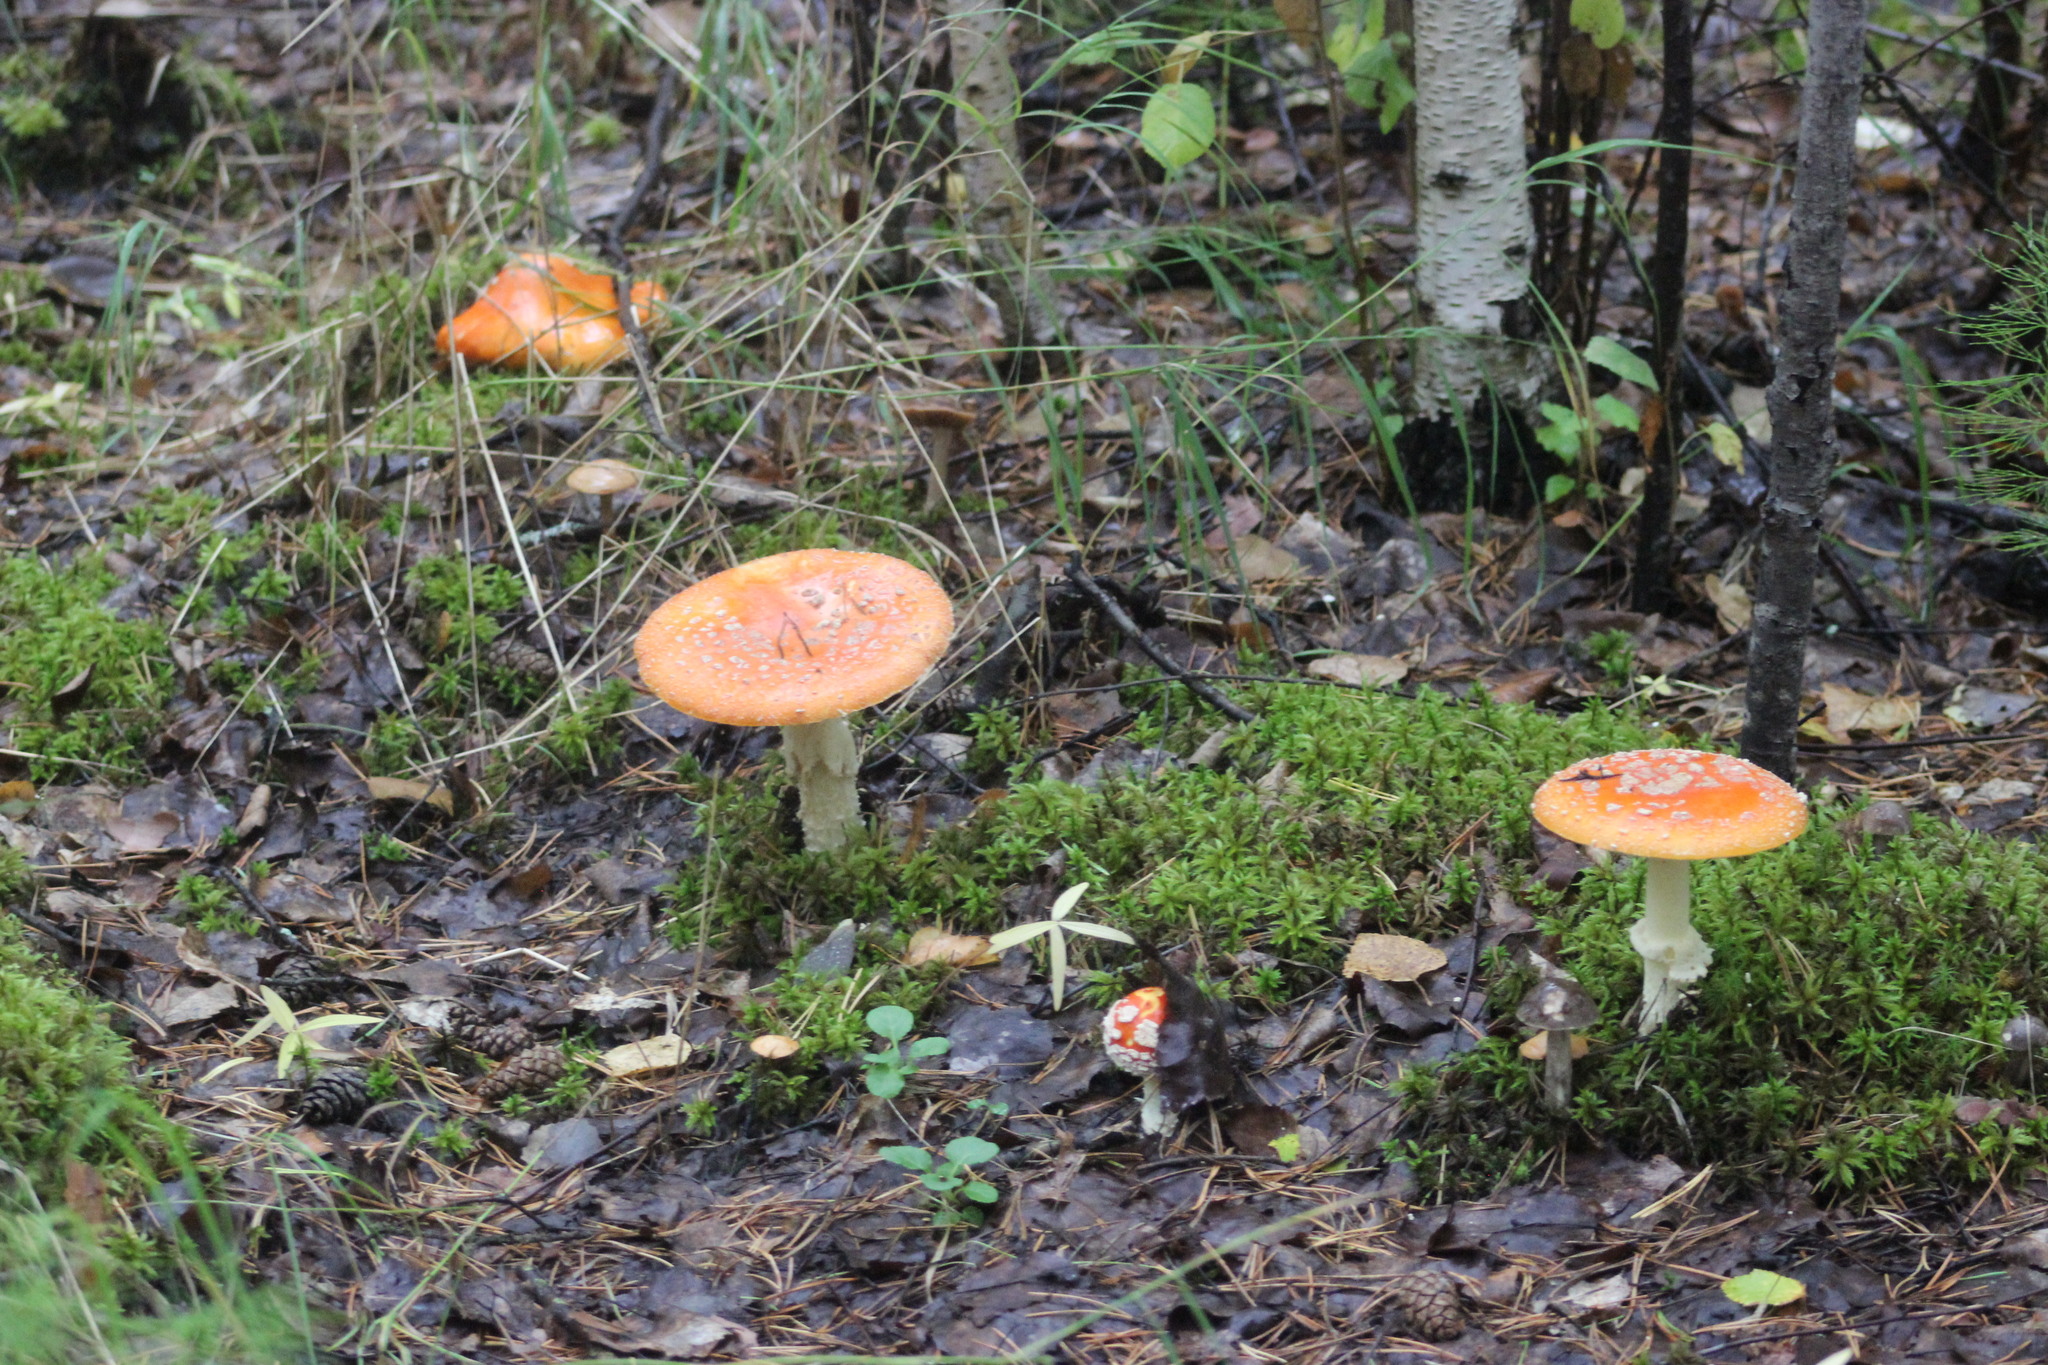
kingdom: Fungi
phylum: Basidiomycota
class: Agaricomycetes
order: Agaricales
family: Amanitaceae
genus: Amanita
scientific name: Amanita muscaria
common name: Fly agaric
